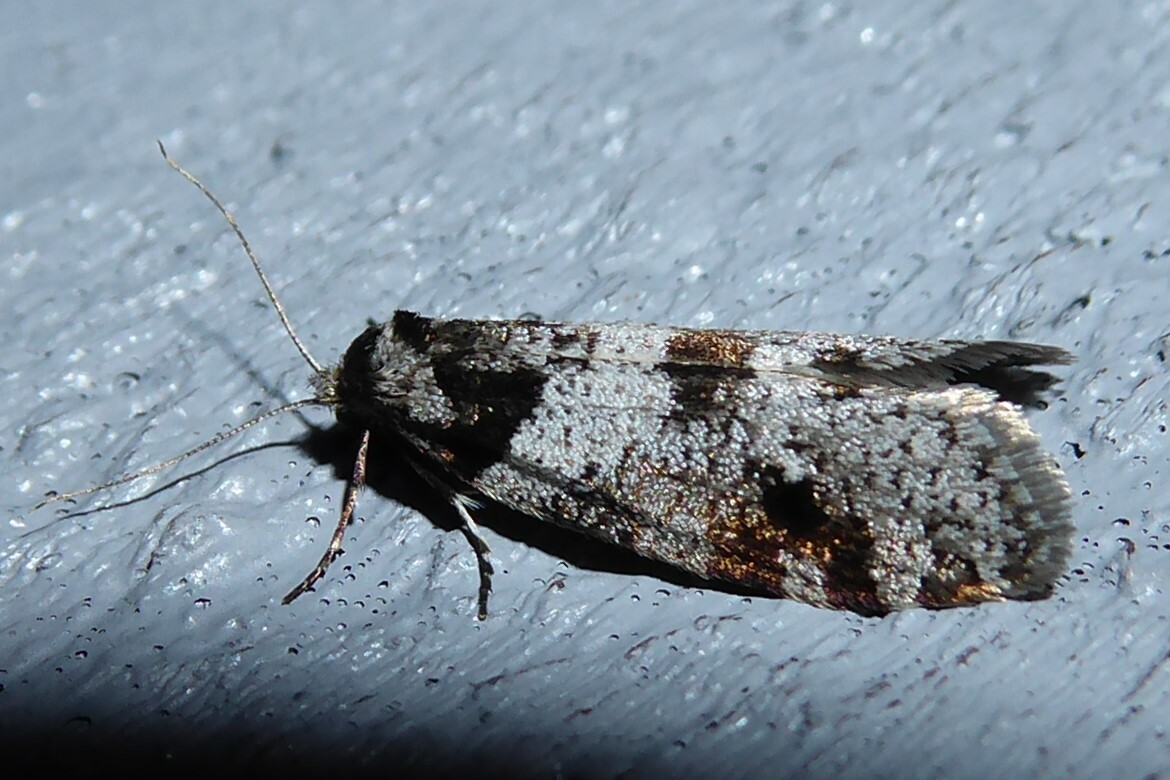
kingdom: Animalia
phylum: Arthropoda
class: Insecta
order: Lepidoptera
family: Psychidae
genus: Lepidoscia
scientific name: Lepidoscia heliochares
